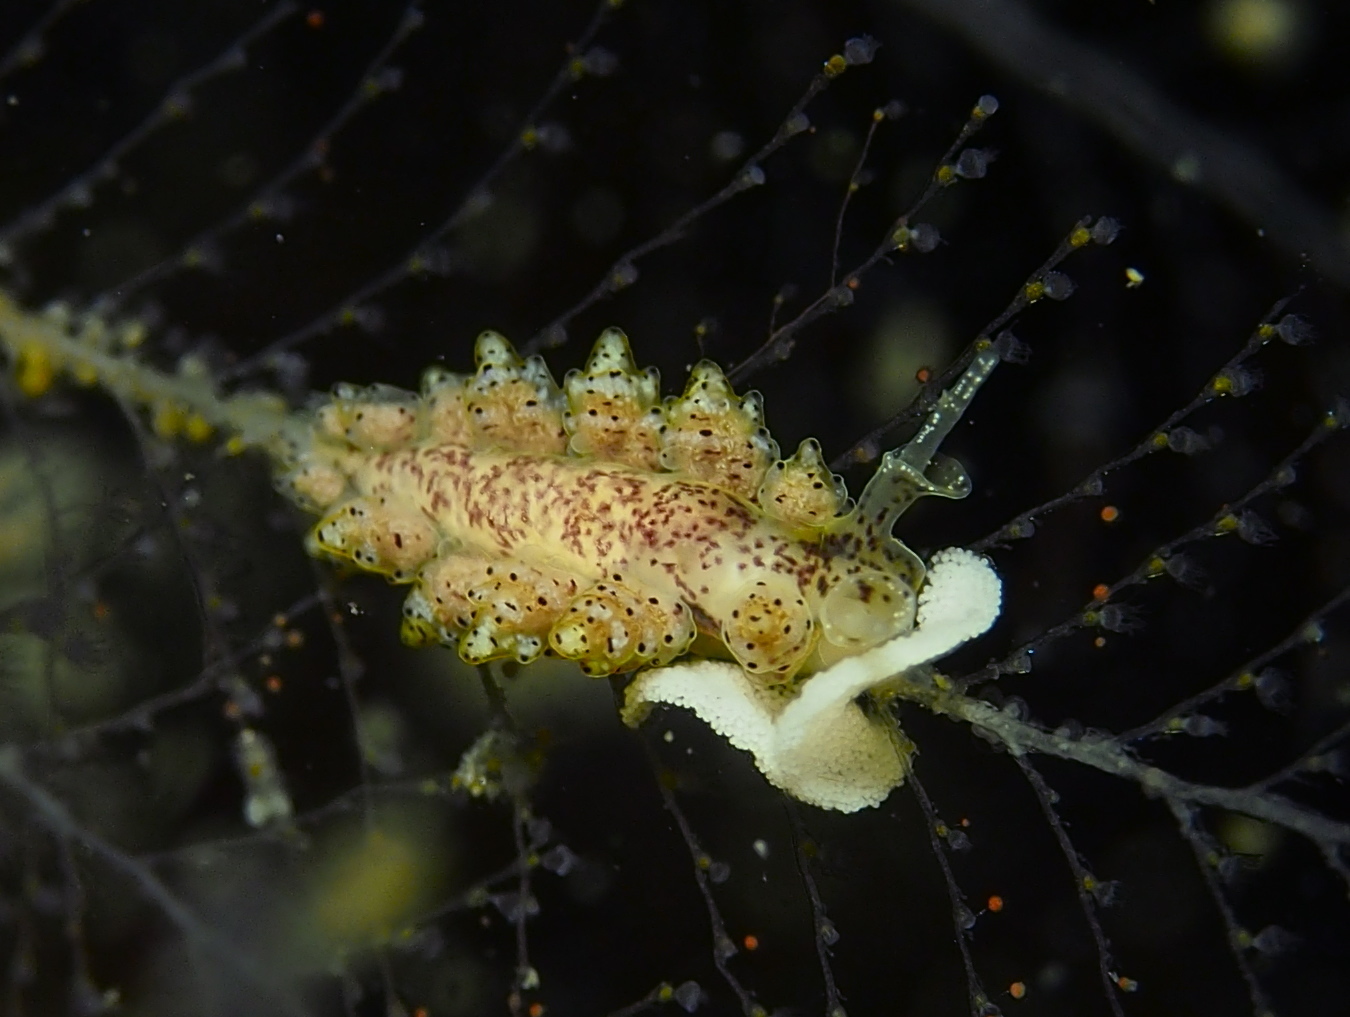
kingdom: Animalia
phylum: Mollusca
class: Gastropoda
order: Nudibranchia
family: Dotidae
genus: Doto
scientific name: Doto dunnei
